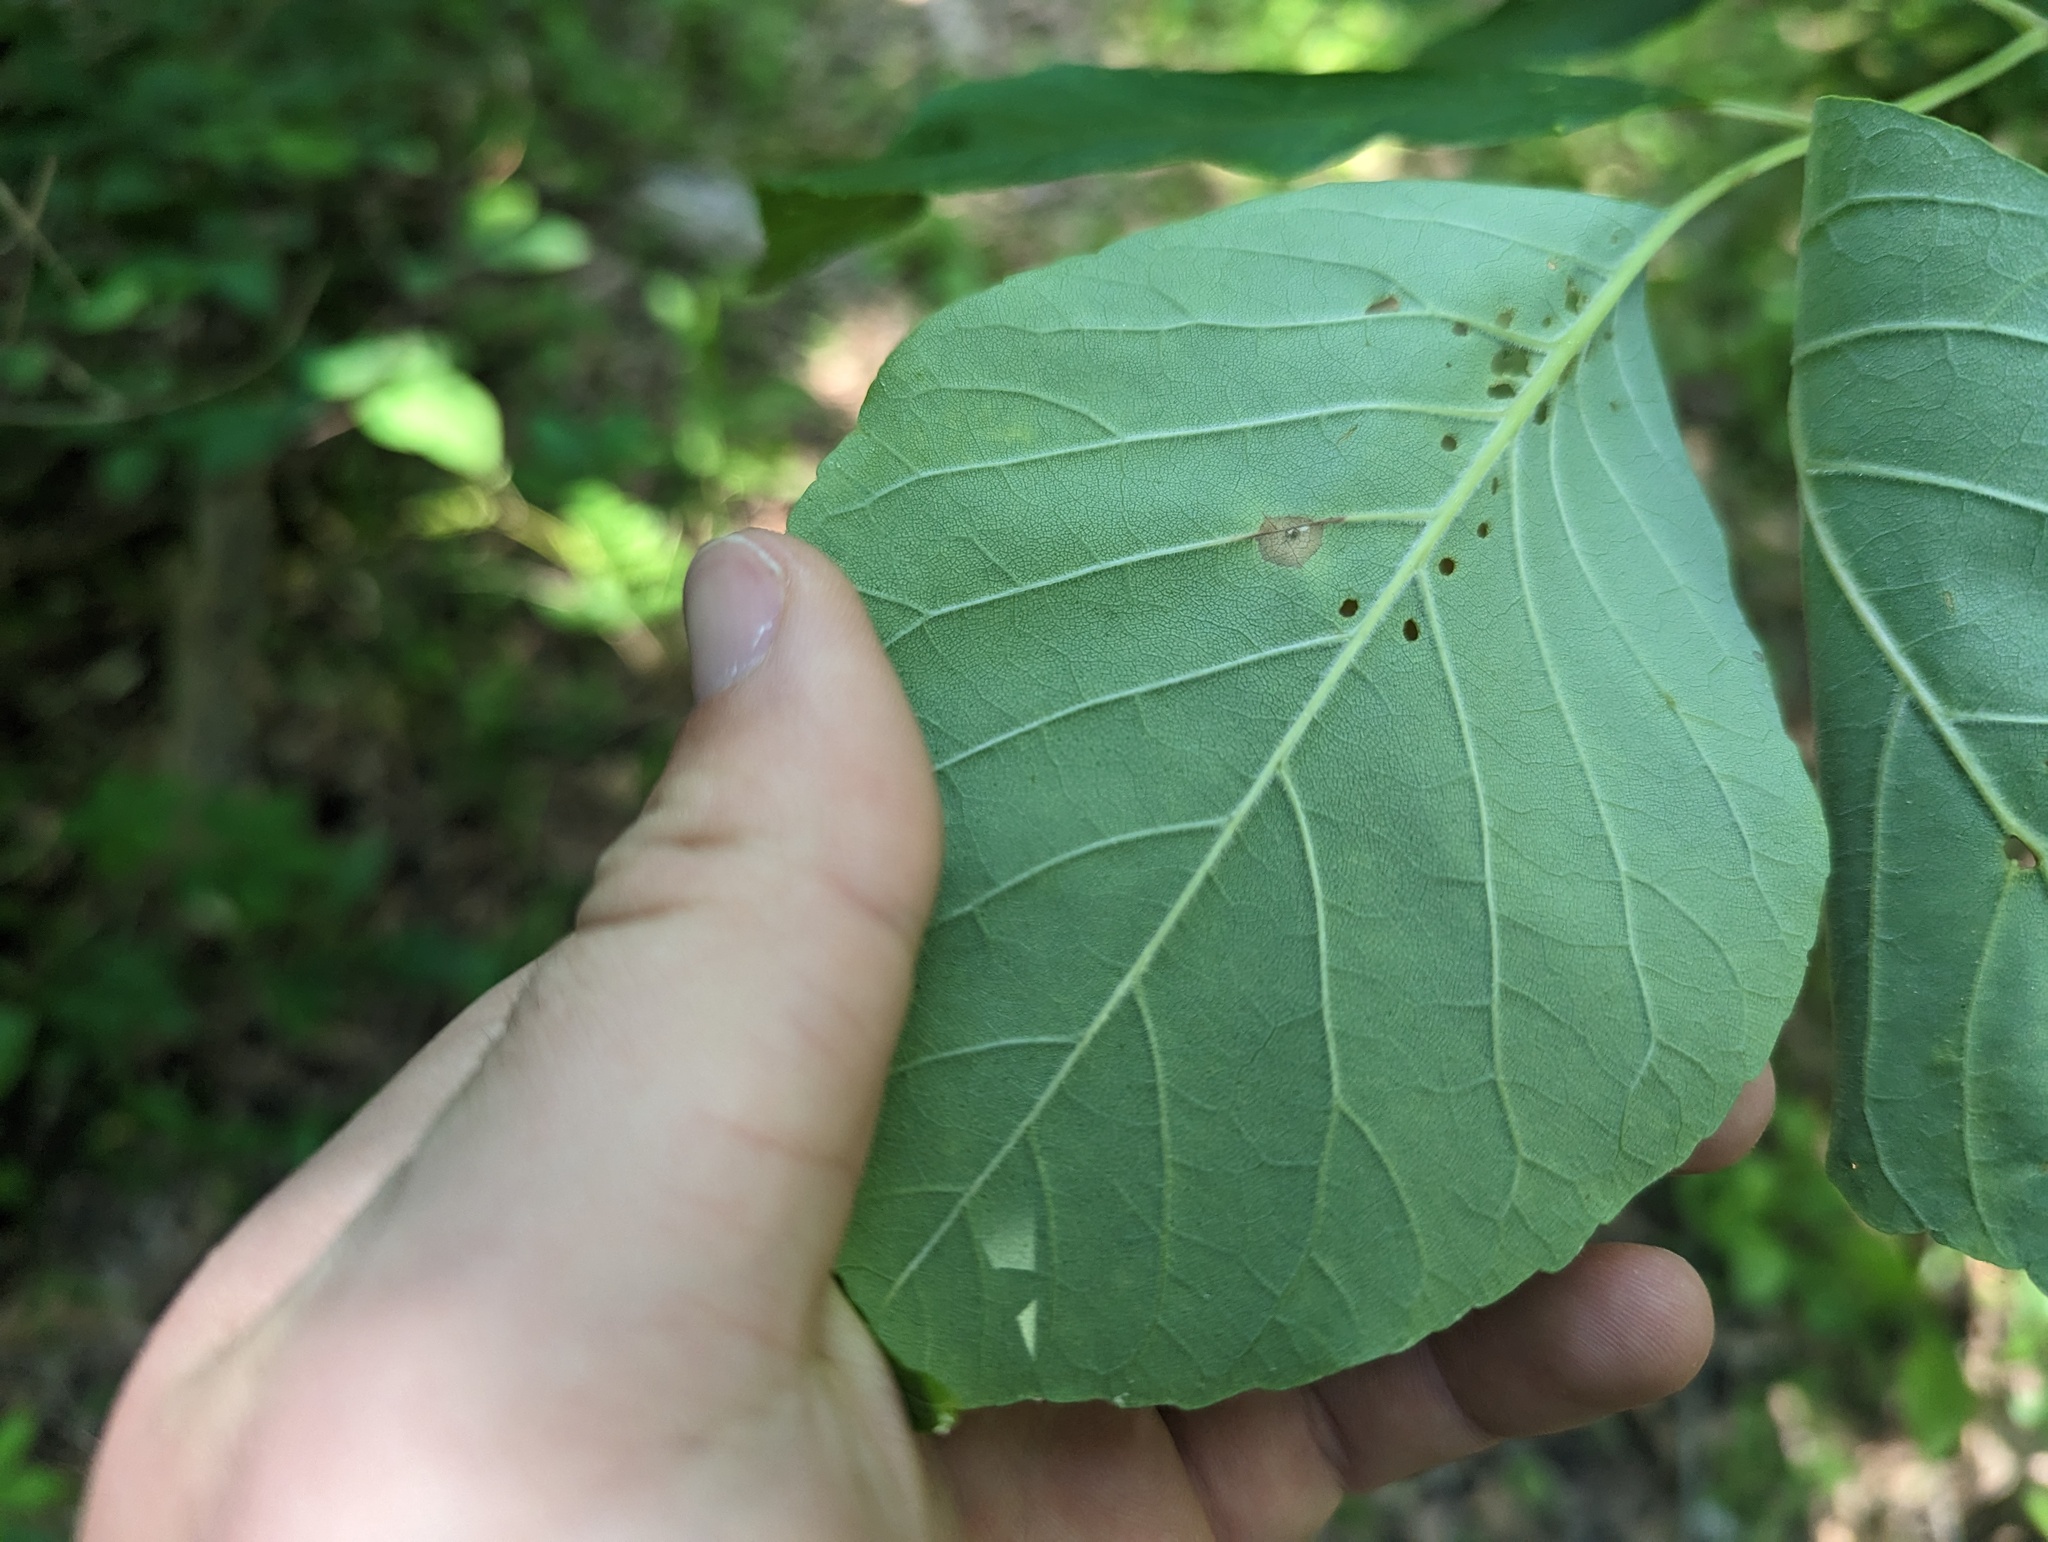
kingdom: Plantae
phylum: Tracheophyta
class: Magnoliopsida
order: Lamiales
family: Oleaceae
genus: Fraxinus
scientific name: Fraxinus americana
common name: White ash
